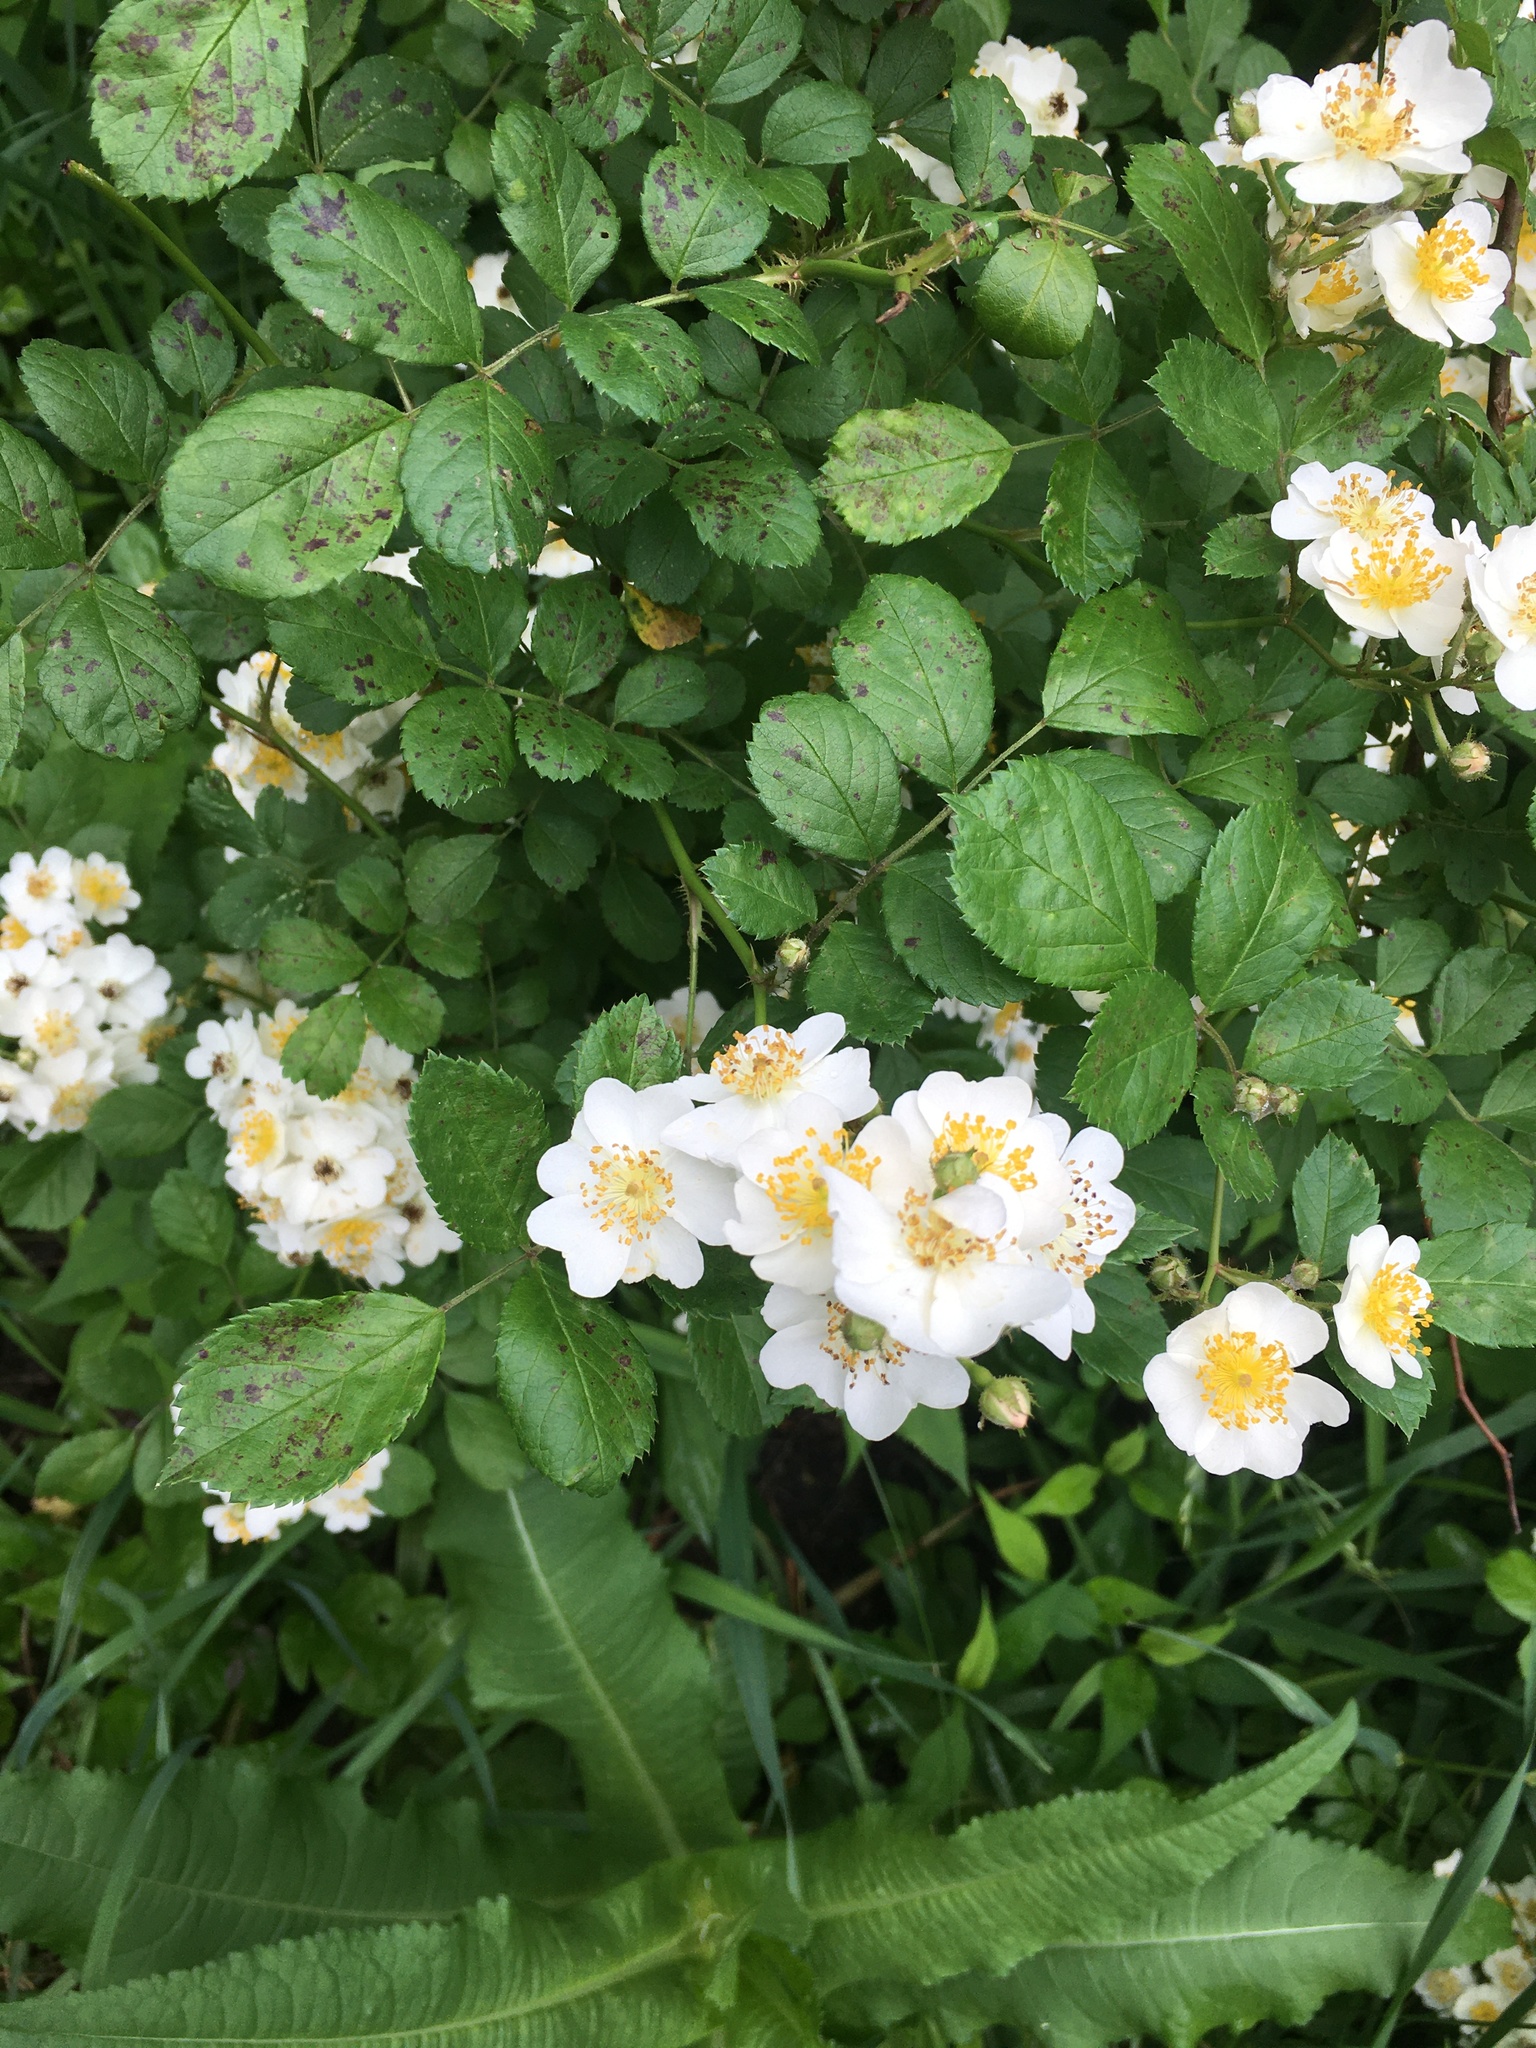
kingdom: Plantae
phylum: Tracheophyta
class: Magnoliopsida
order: Rosales
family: Rosaceae
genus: Rosa
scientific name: Rosa multiflora
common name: Multiflora rose
